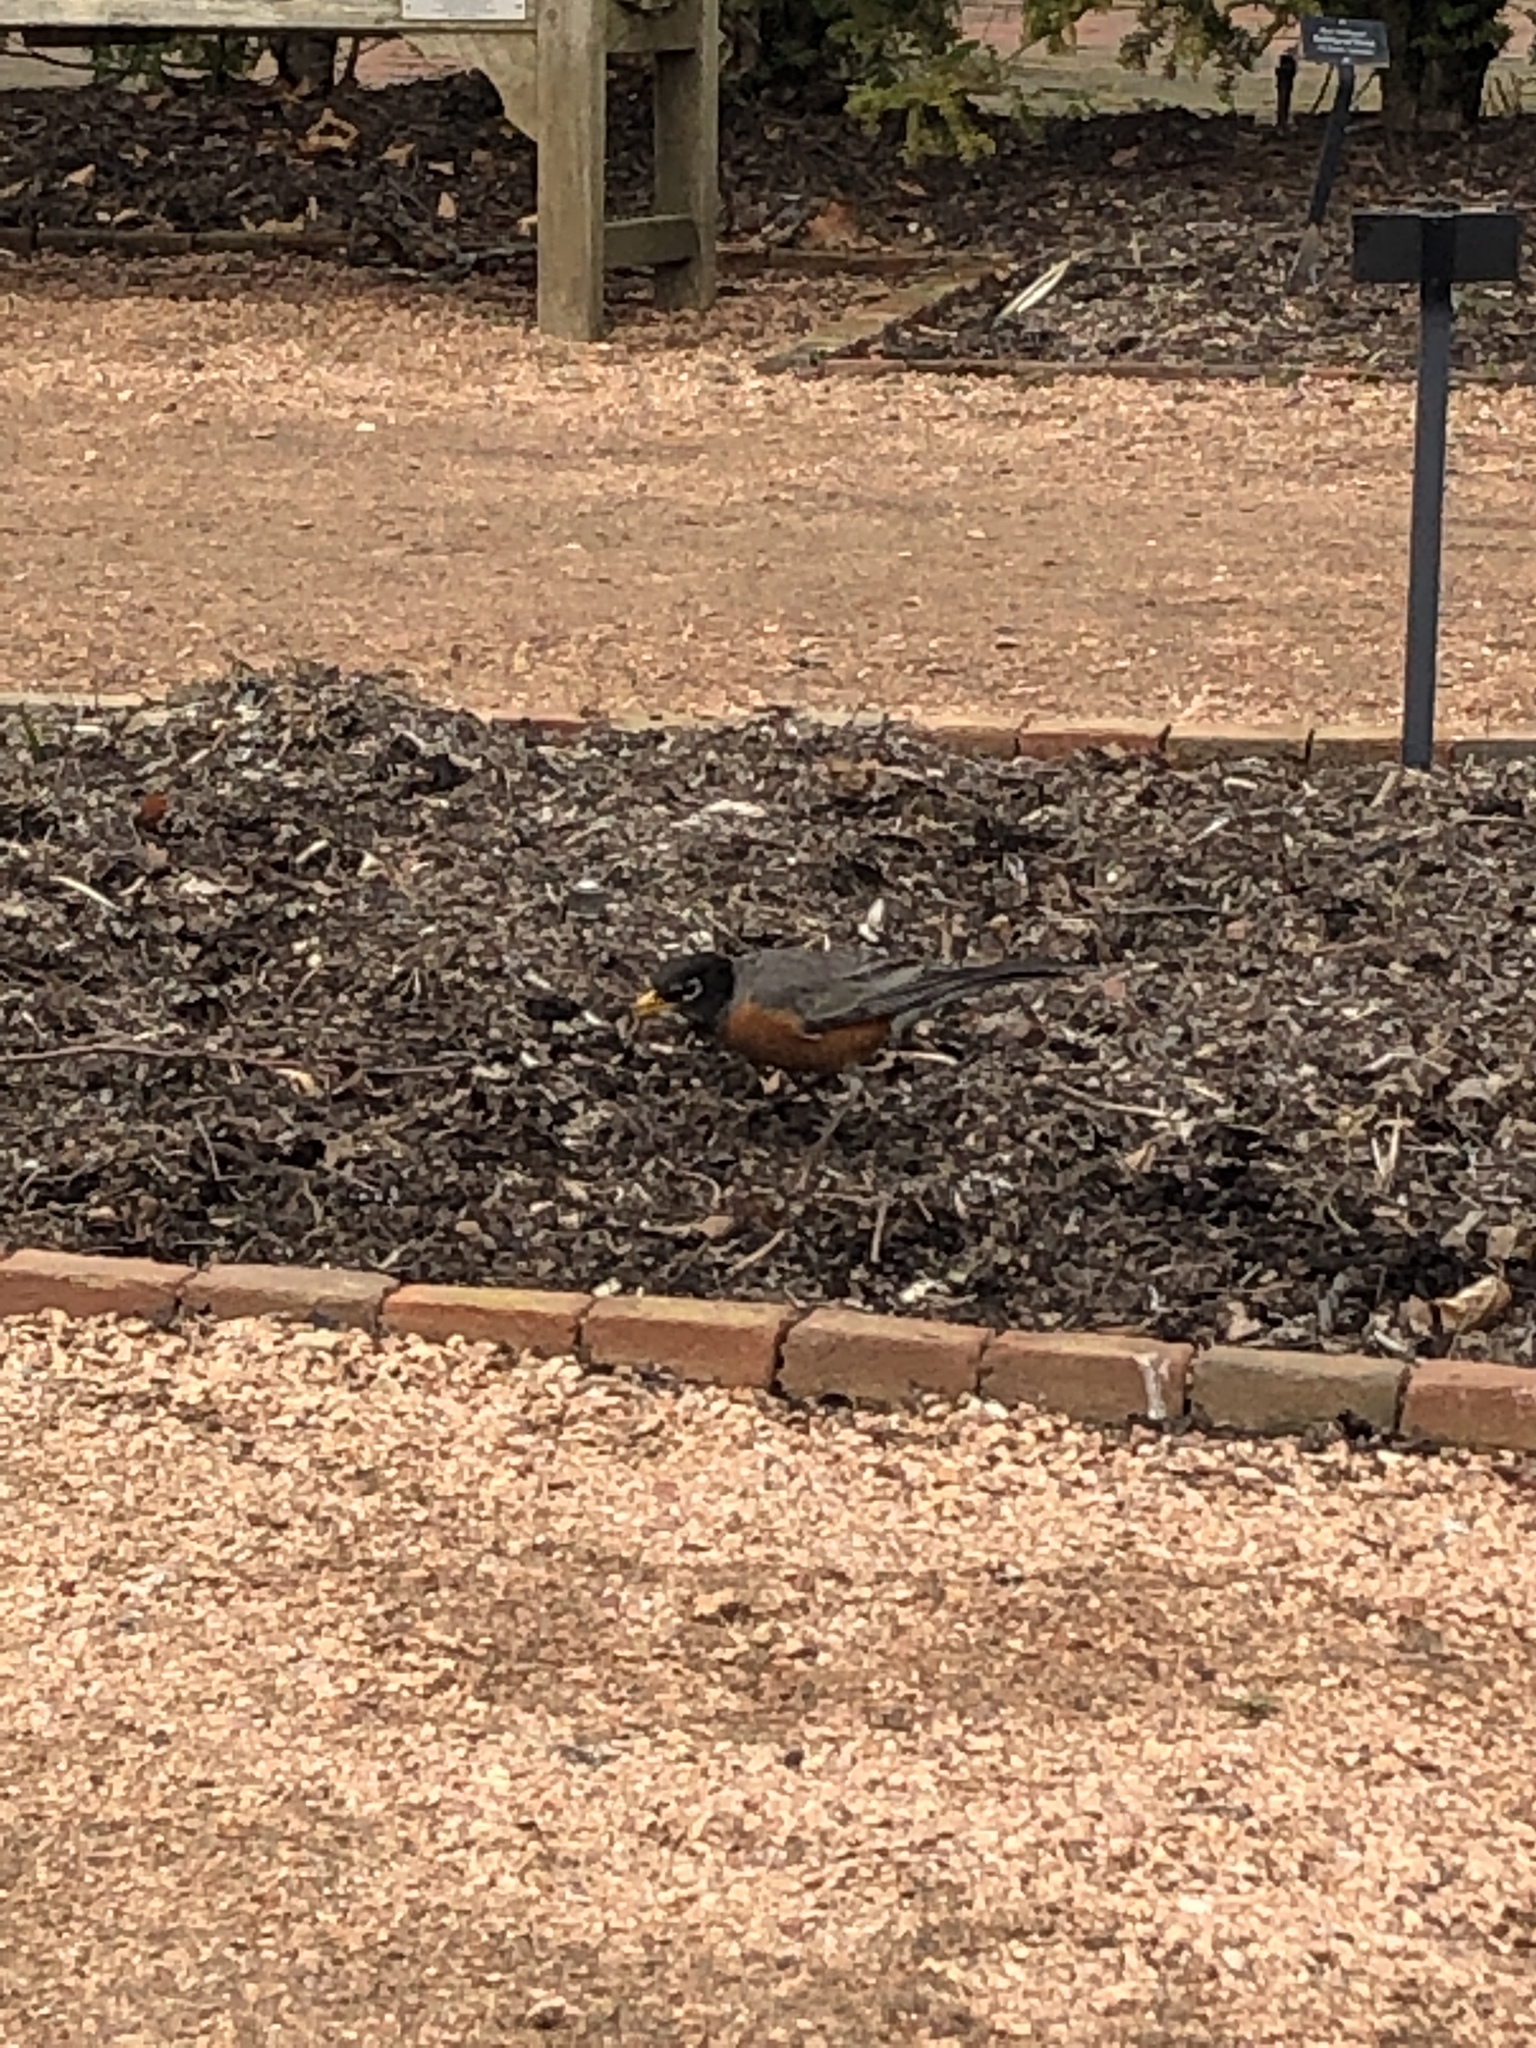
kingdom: Animalia
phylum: Chordata
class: Aves
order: Passeriformes
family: Turdidae
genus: Turdus
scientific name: Turdus migratorius
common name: American robin
